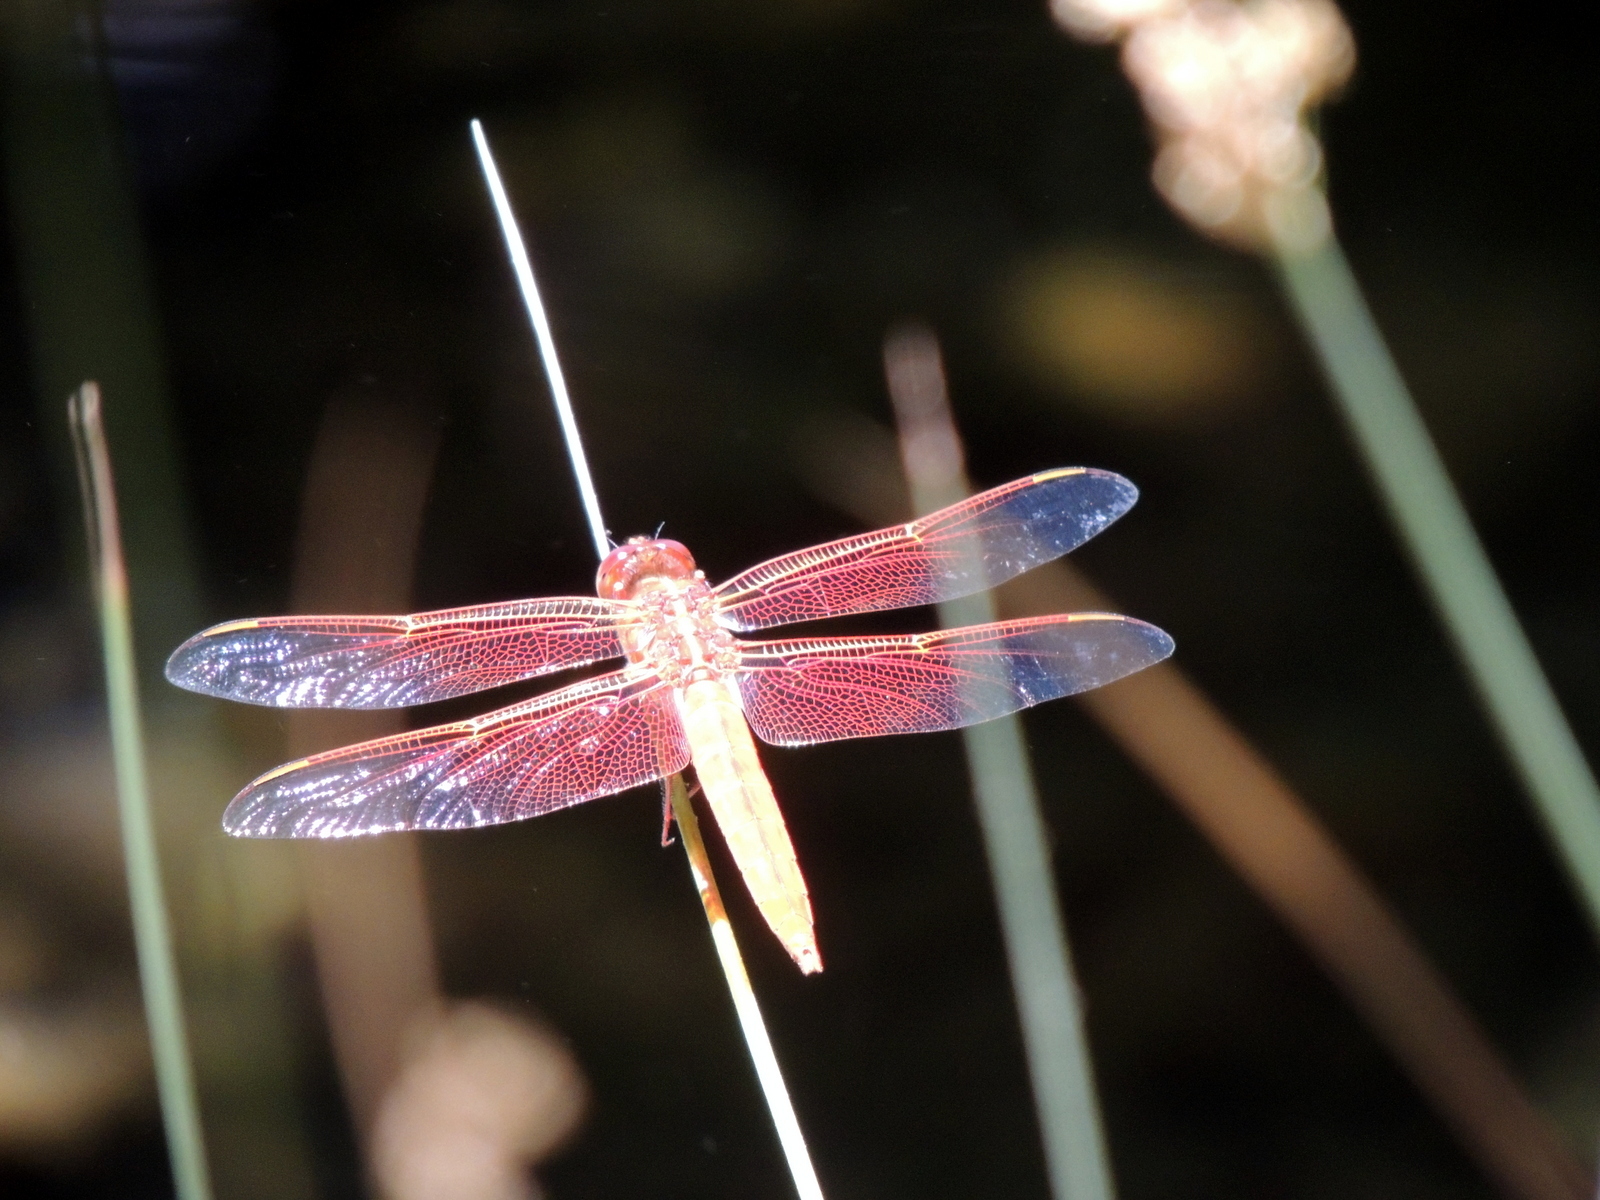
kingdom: Animalia
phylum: Arthropoda
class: Insecta
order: Odonata
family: Libellulidae
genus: Libellula
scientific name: Libellula saturata
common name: Flame skimmer
